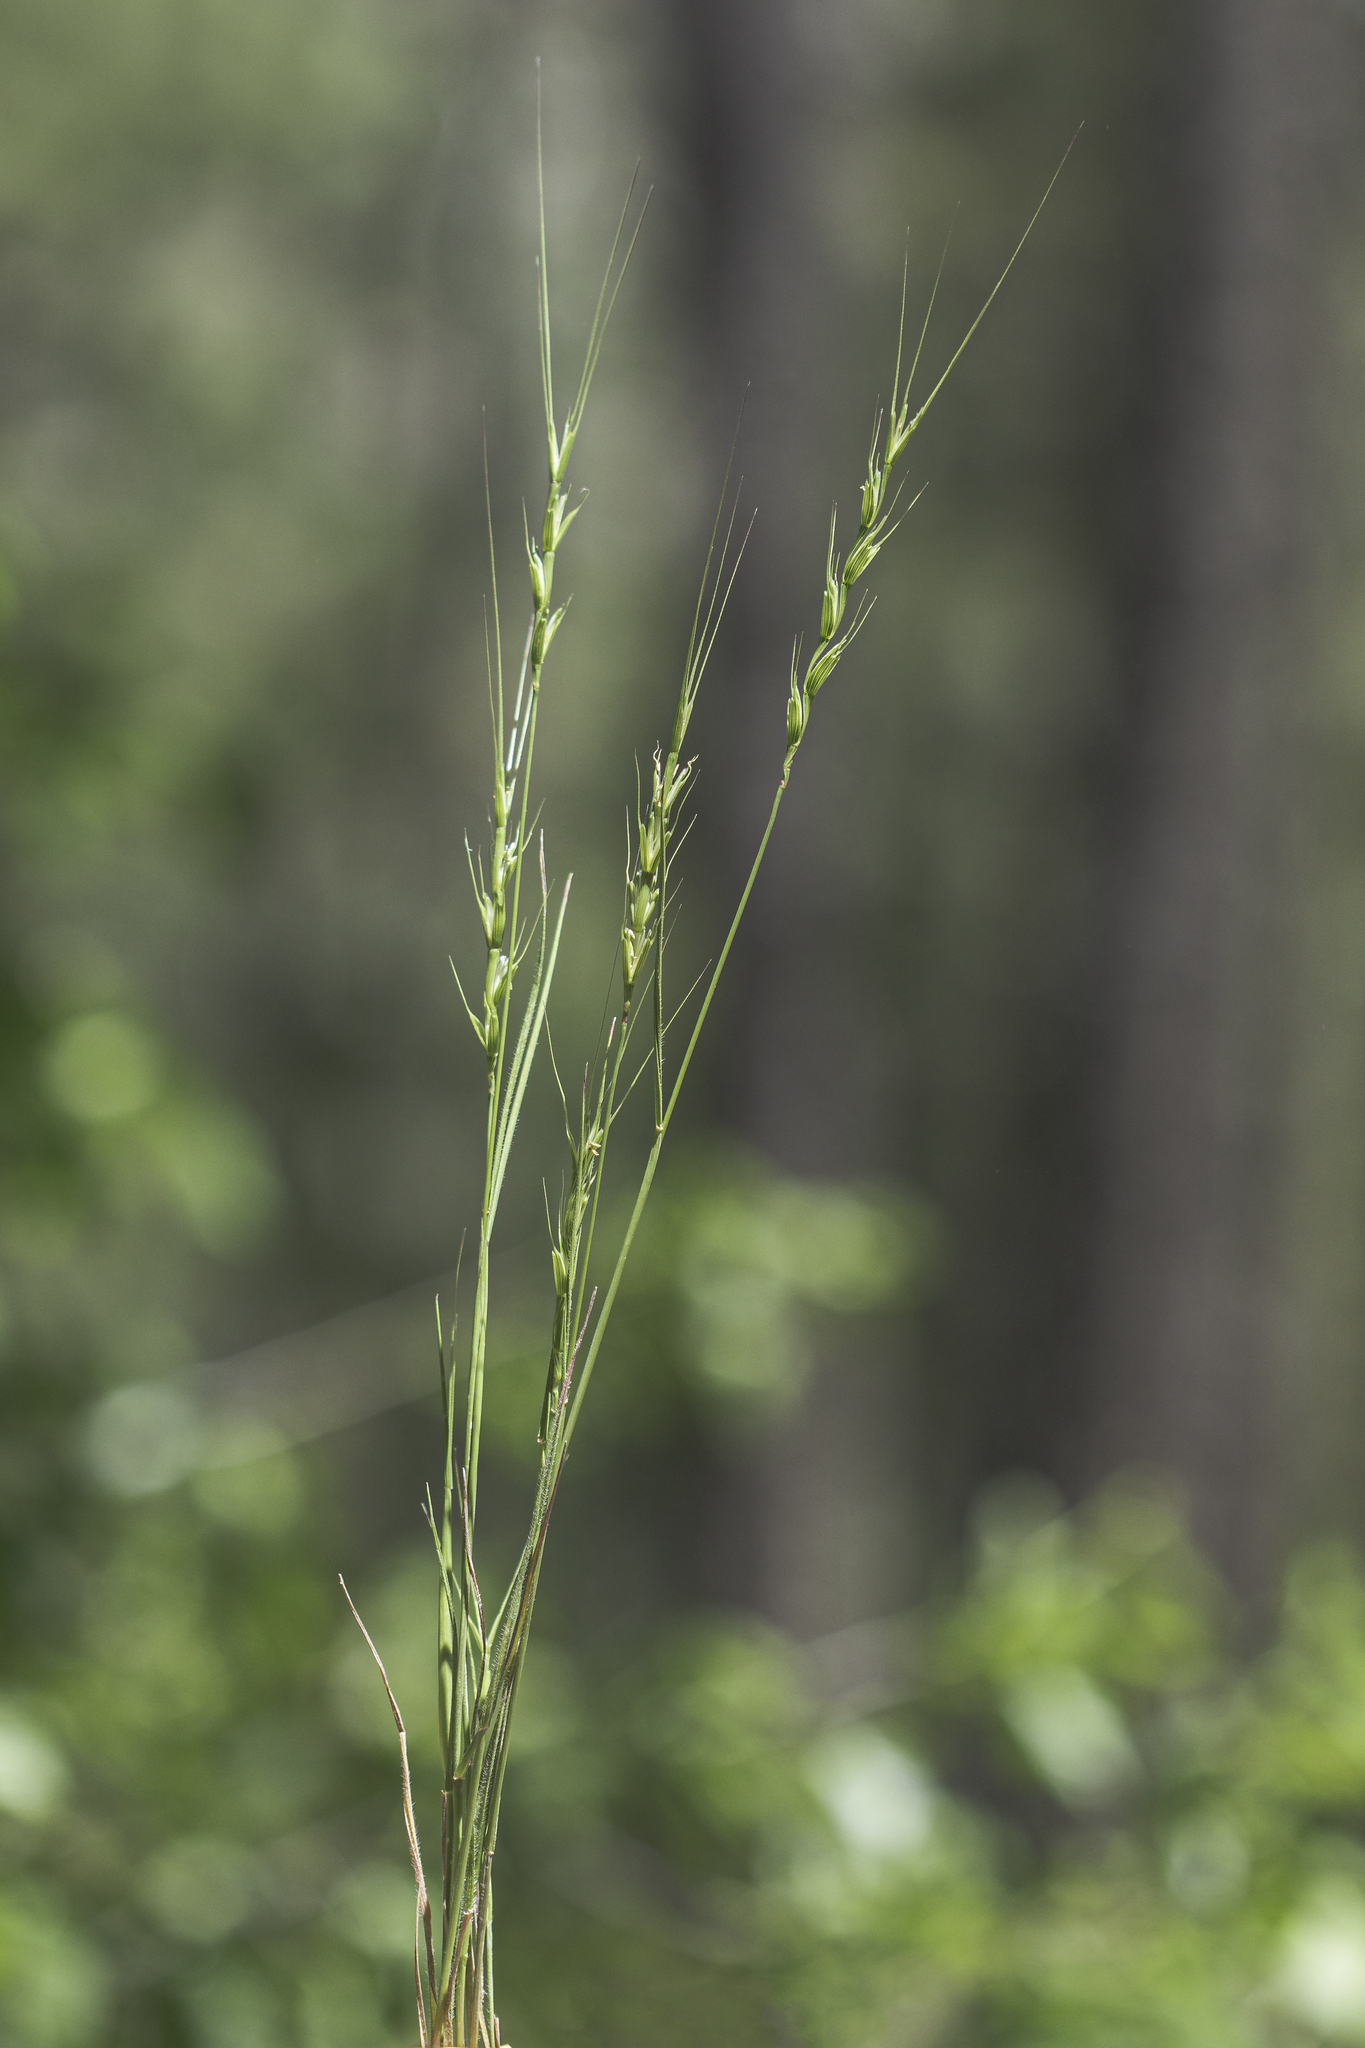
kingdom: Plantae
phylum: Tracheophyta
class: Liliopsida
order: Poales
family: Poaceae
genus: Aegilops
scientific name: Aegilops cylindrica
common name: Jointed goatgrass
